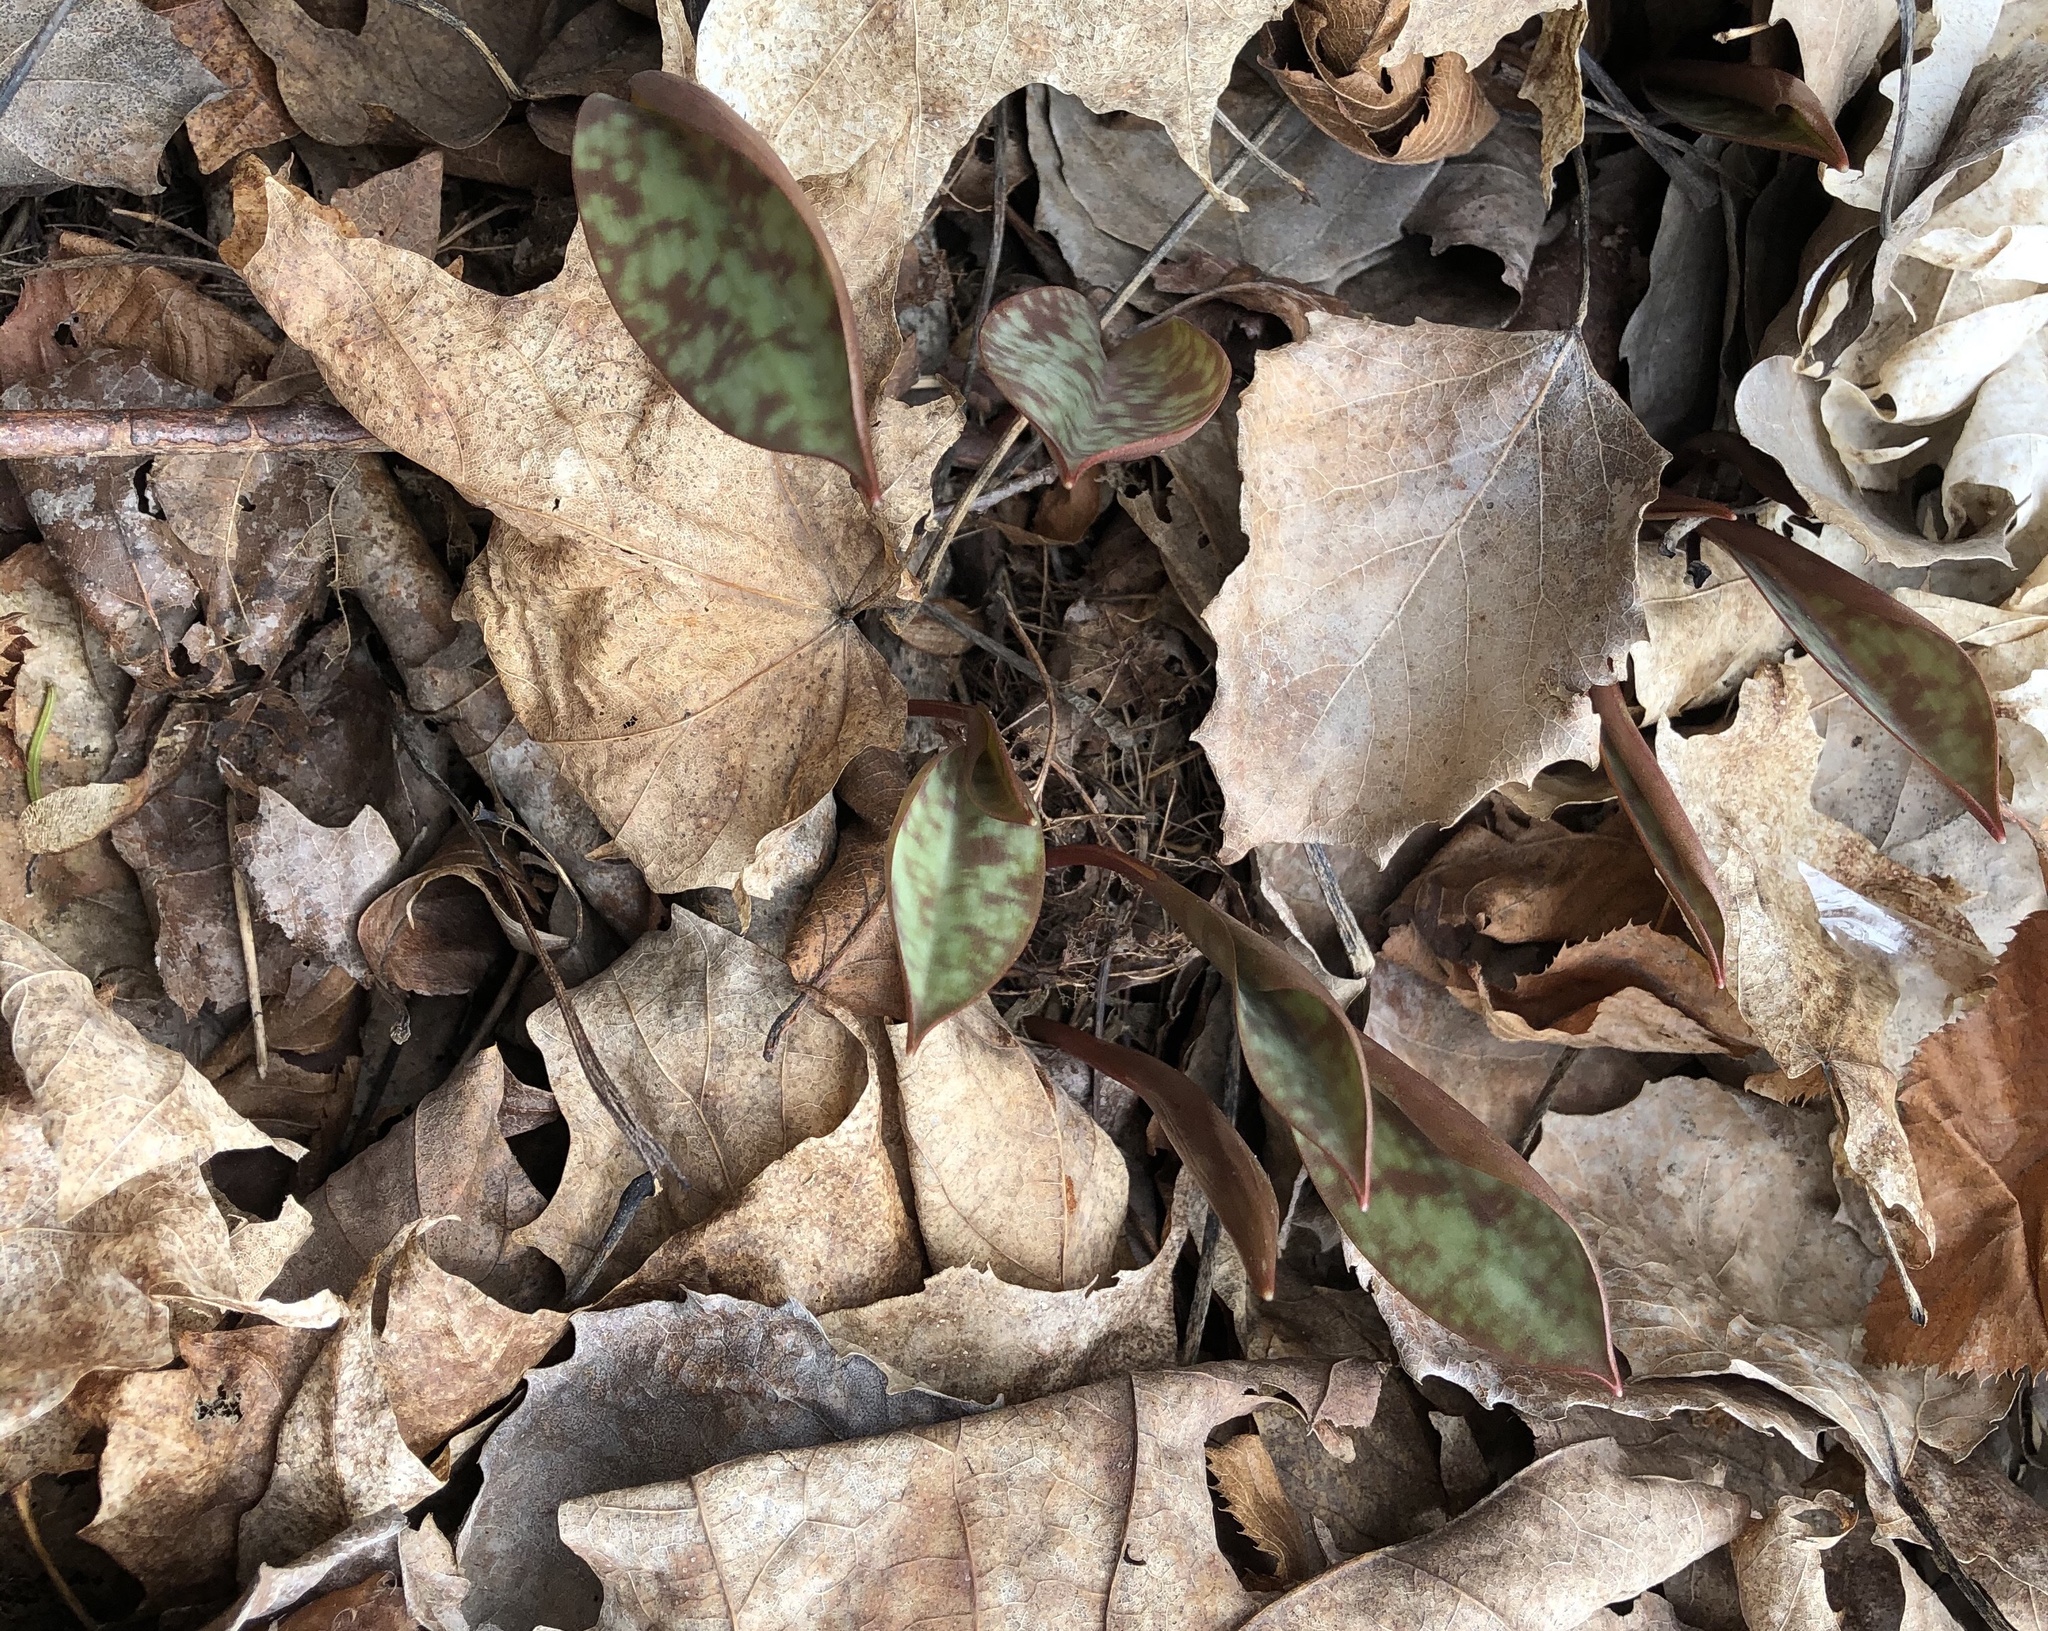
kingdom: Plantae
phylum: Tracheophyta
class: Liliopsida
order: Liliales
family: Liliaceae
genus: Erythronium
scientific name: Erythronium americanum
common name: Yellow adder's-tongue
